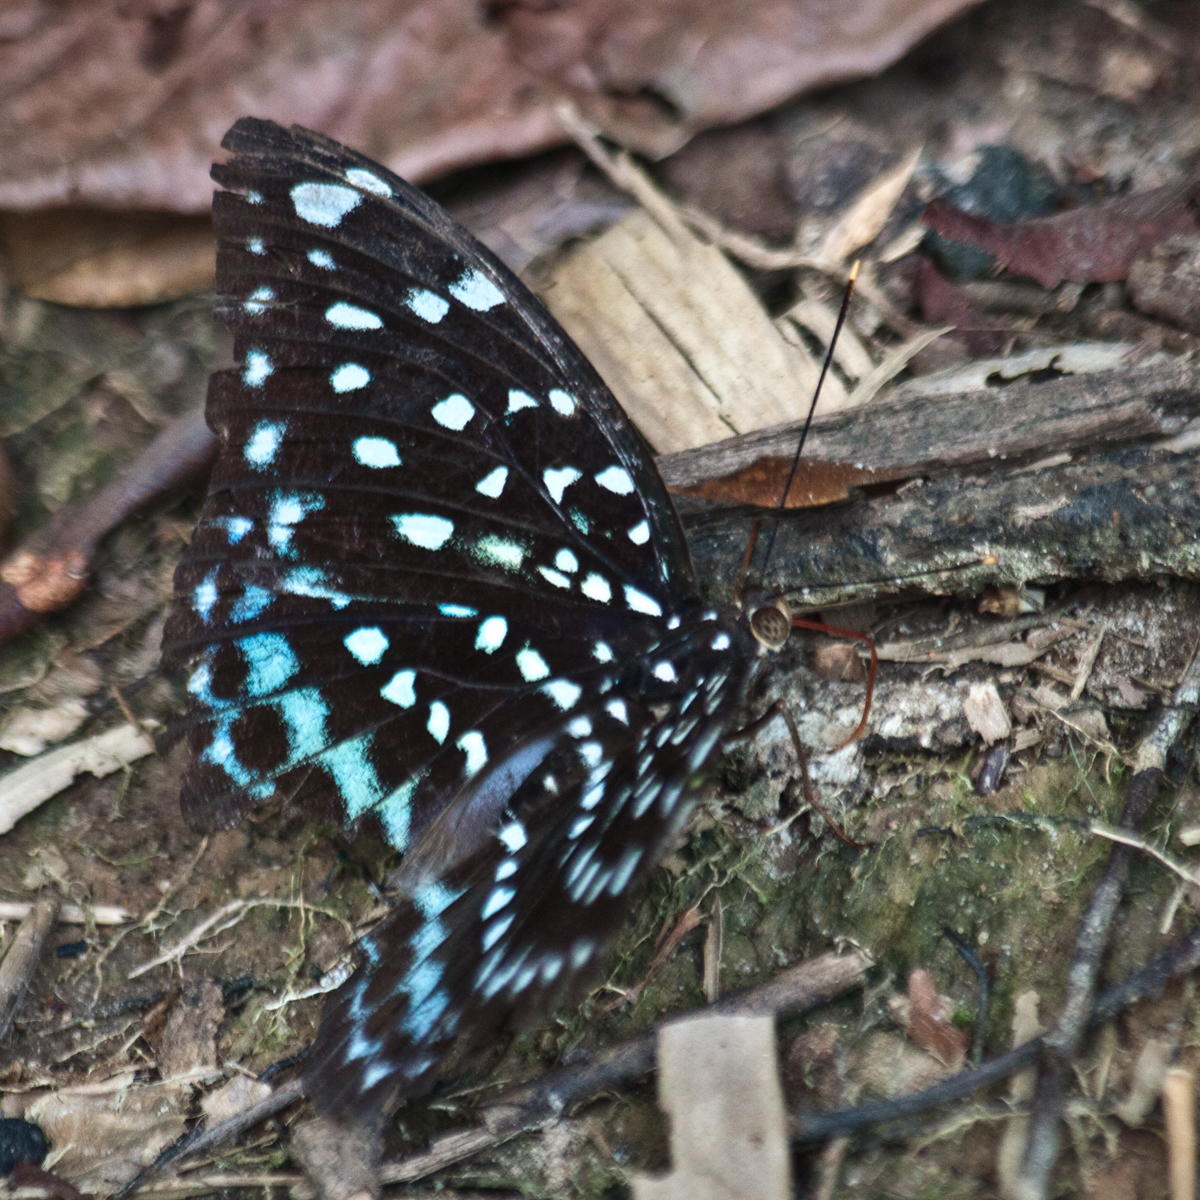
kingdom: Animalia
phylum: Arthropoda
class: Insecta
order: Lepidoptera
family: Nymphalidae
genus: Lexias
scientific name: Lexias
